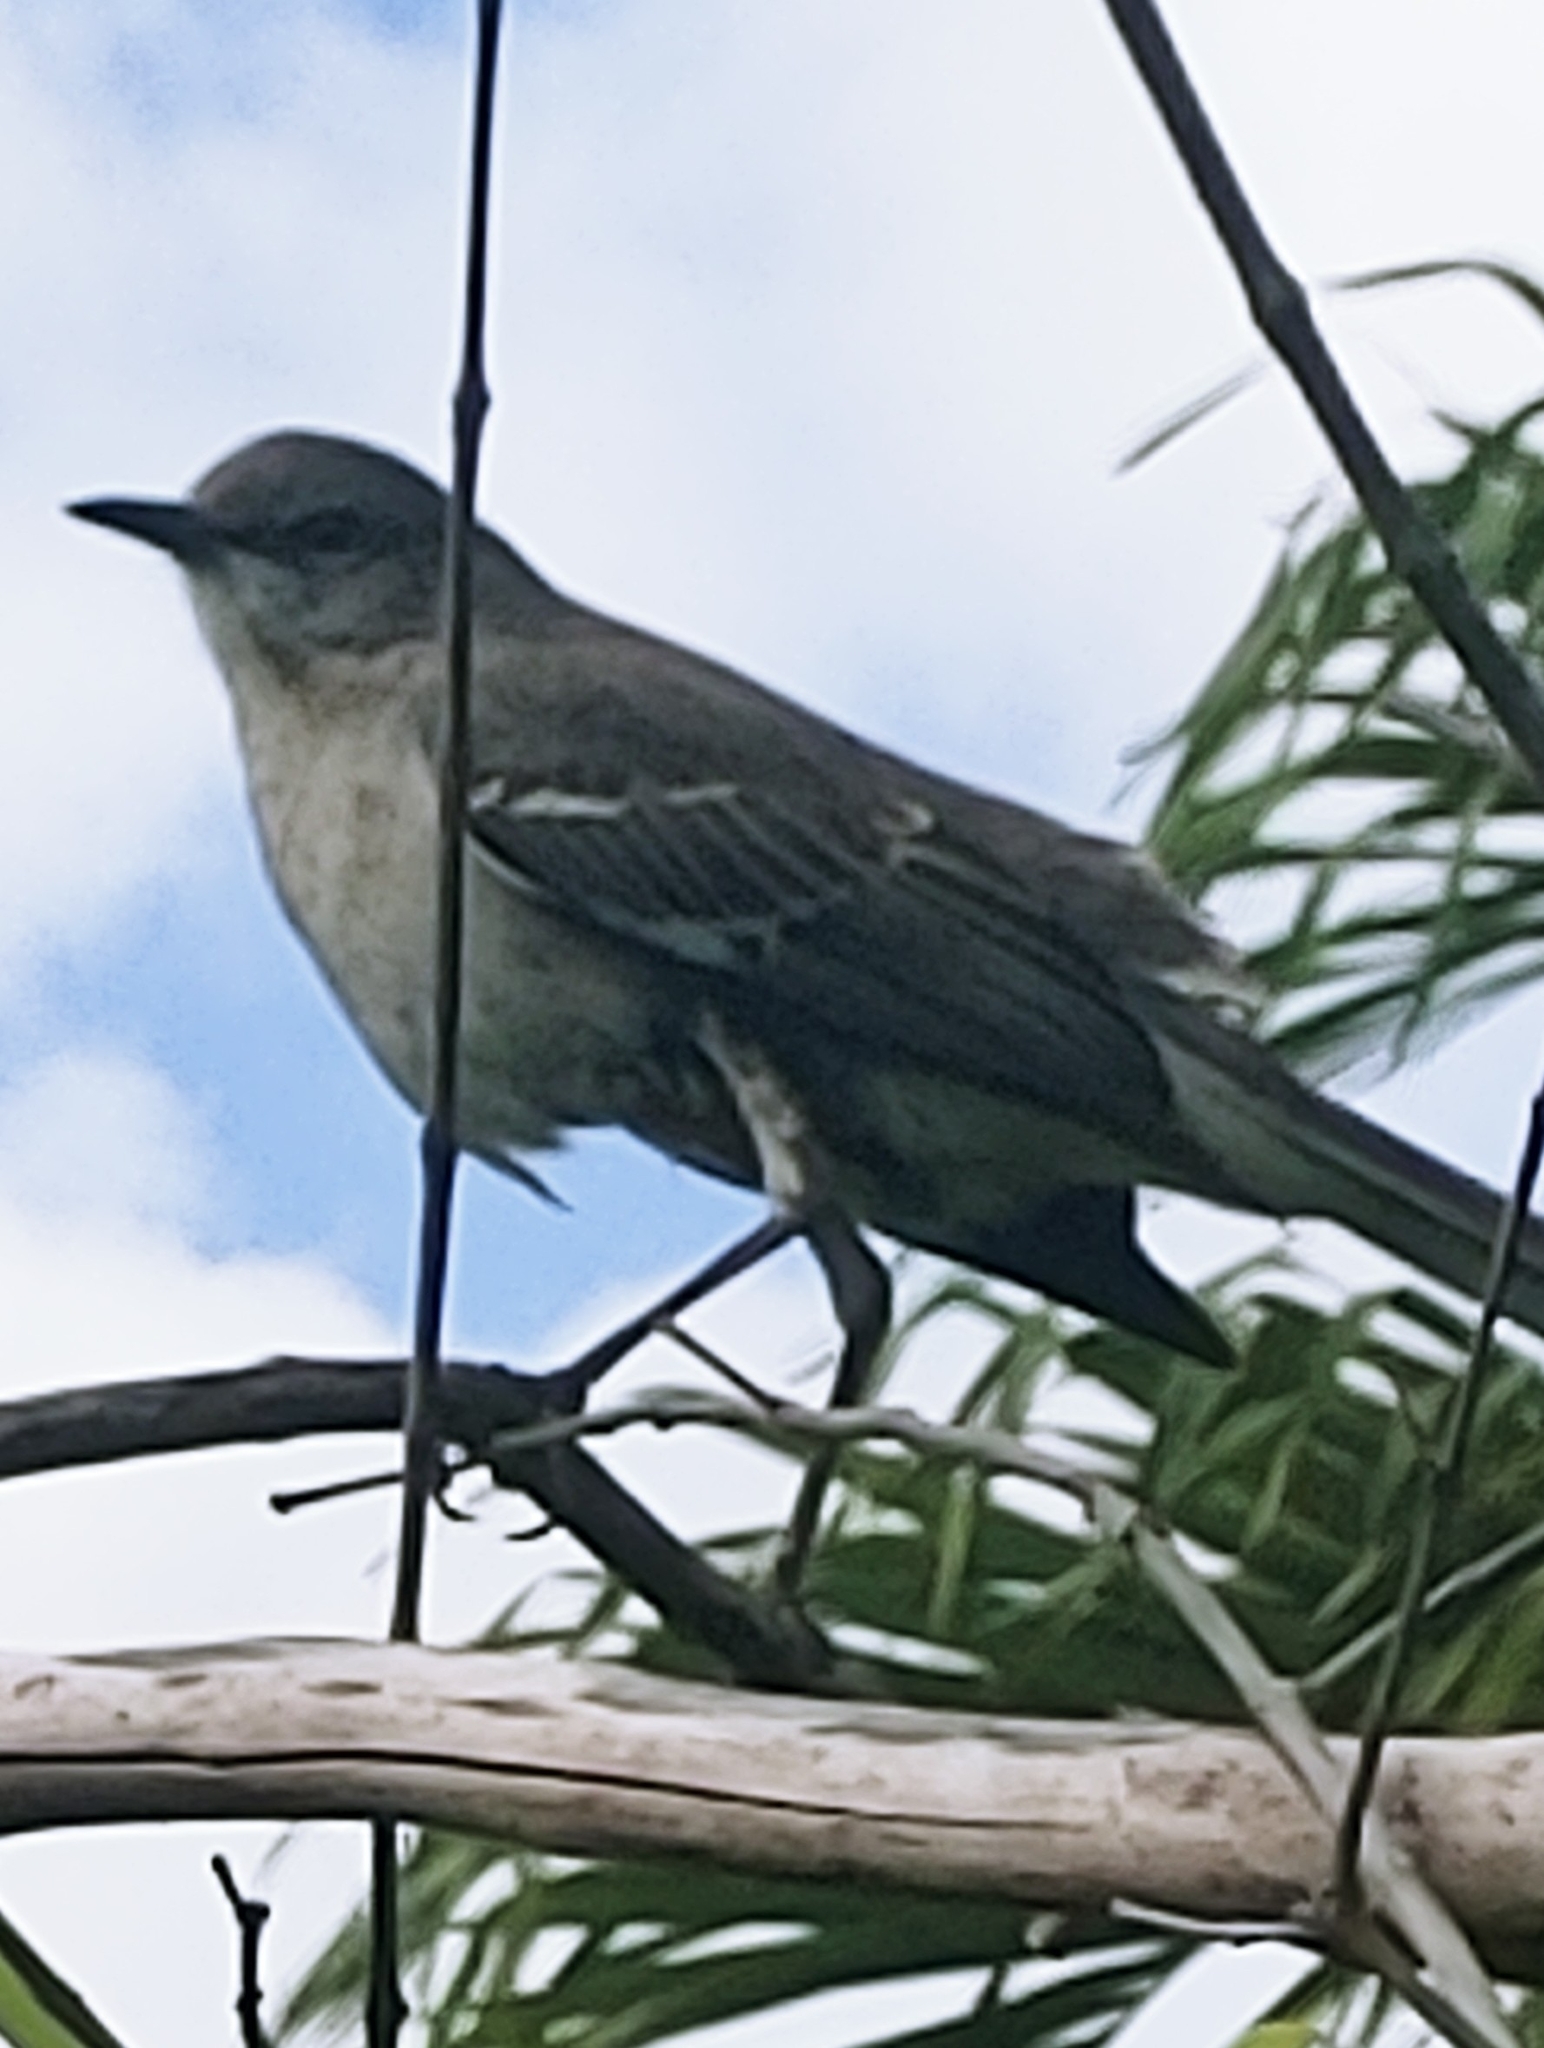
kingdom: Animalia
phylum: Chordata
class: Aves
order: Passeriformes
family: Mimidae
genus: Mimus
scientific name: Mimus polyglottos
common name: Northern mockingbird
